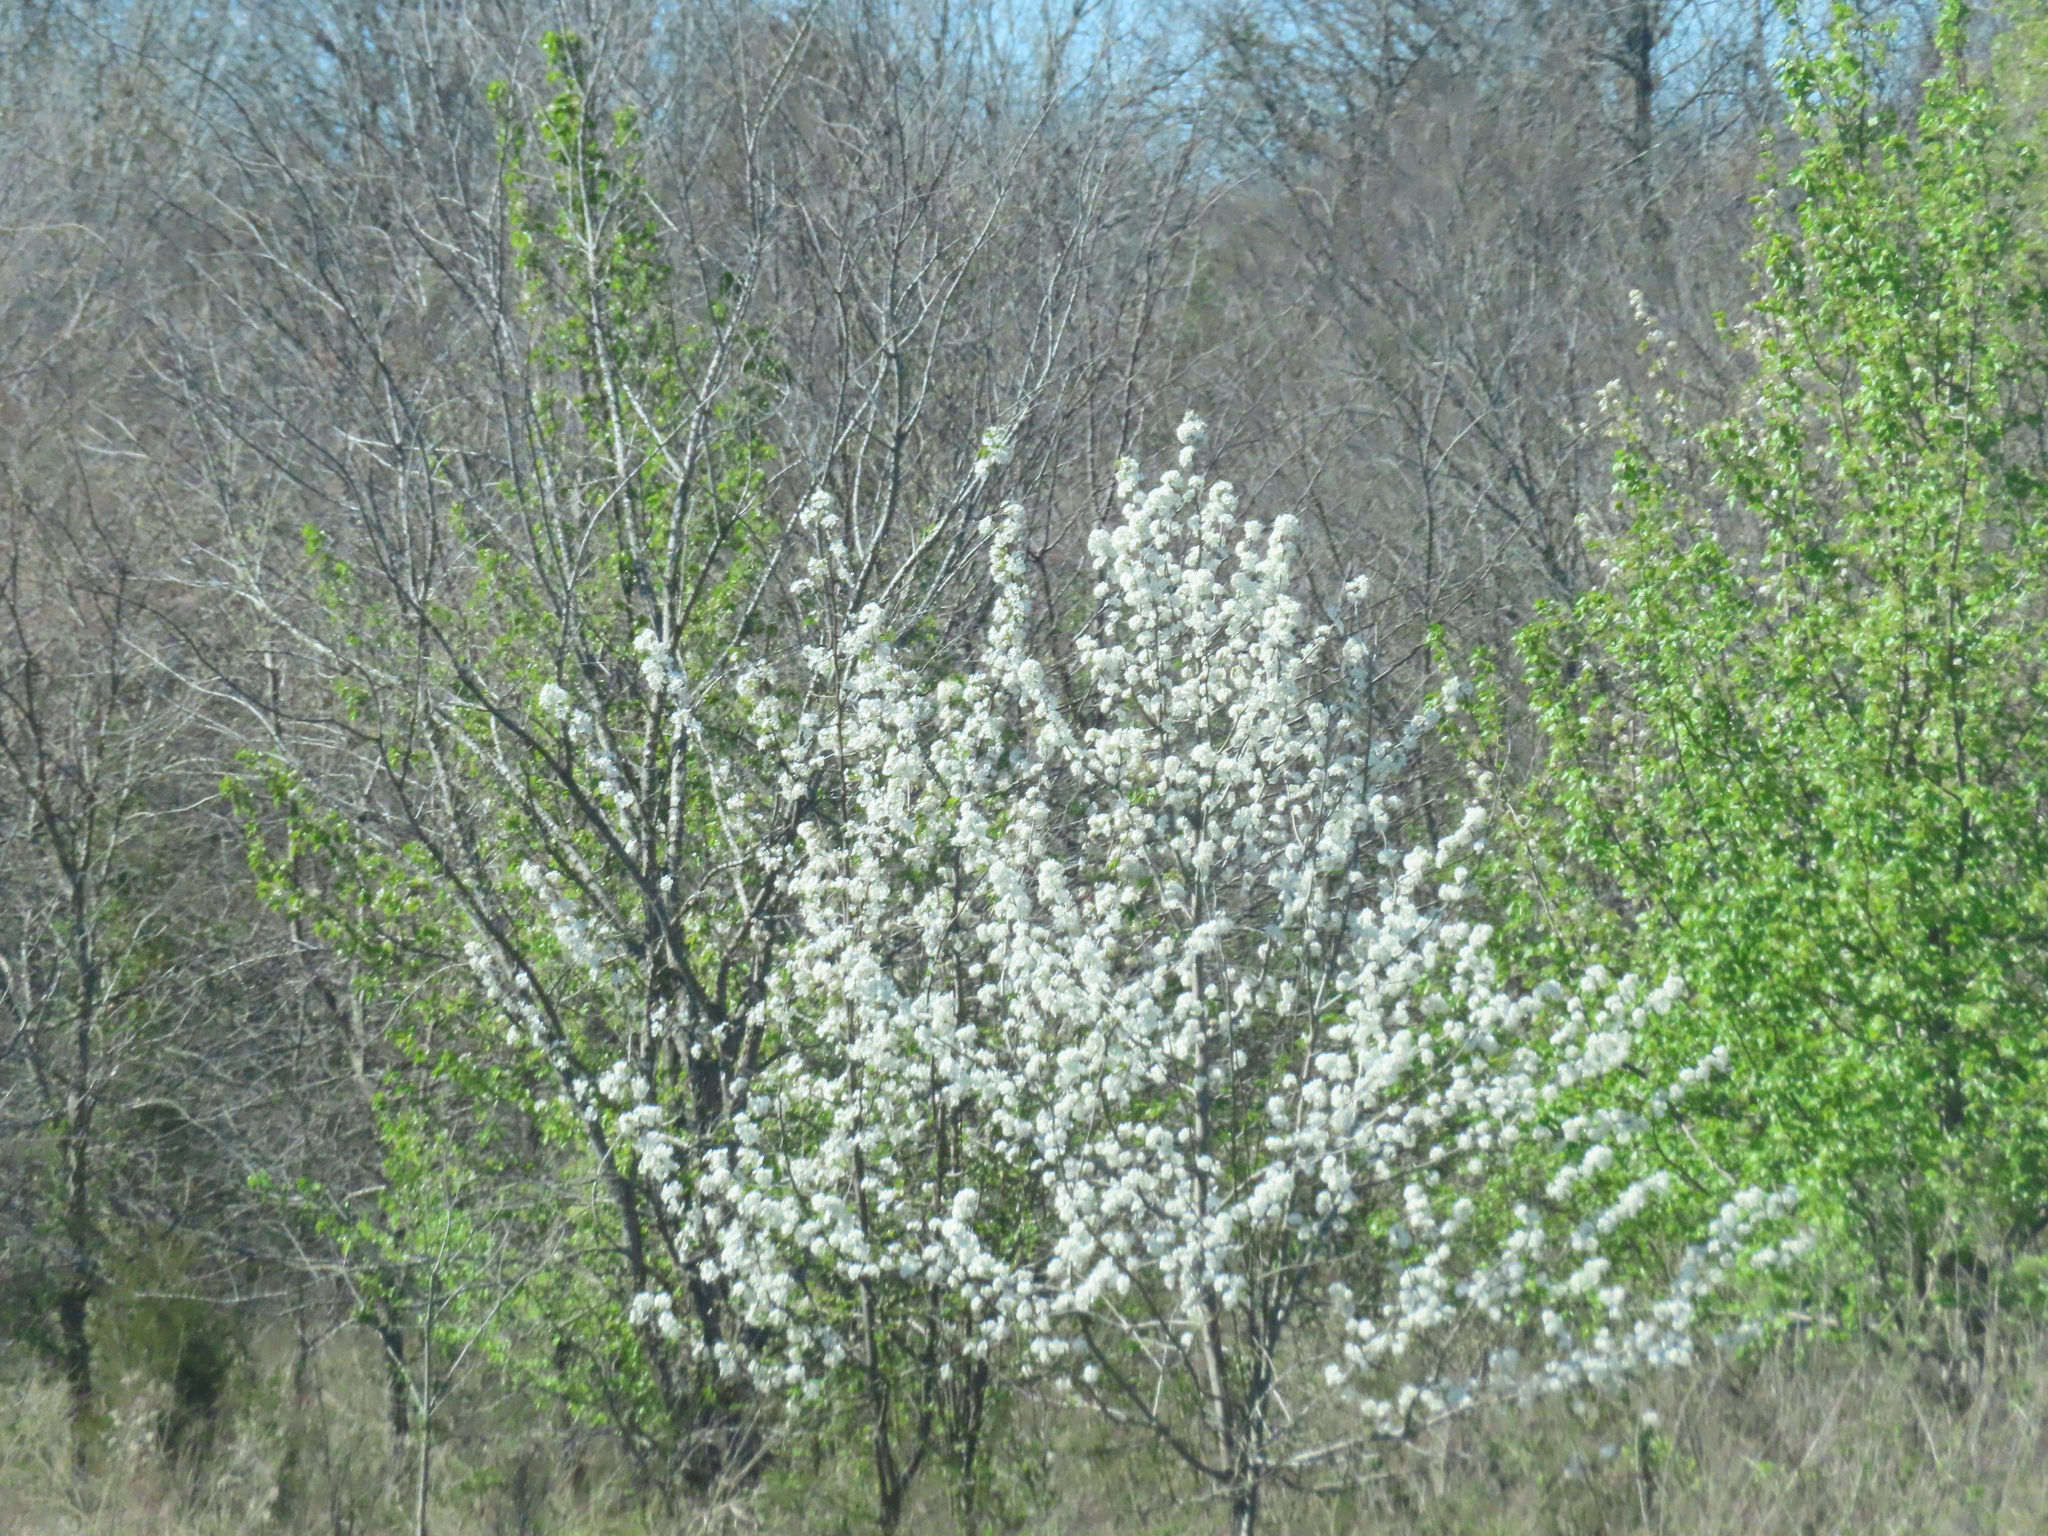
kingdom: Plantae
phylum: Tracheophyta
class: Magnoliopsida
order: Rosales
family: Rosaceae
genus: Pyrus
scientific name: Pyrus calleryana
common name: Callery pear
